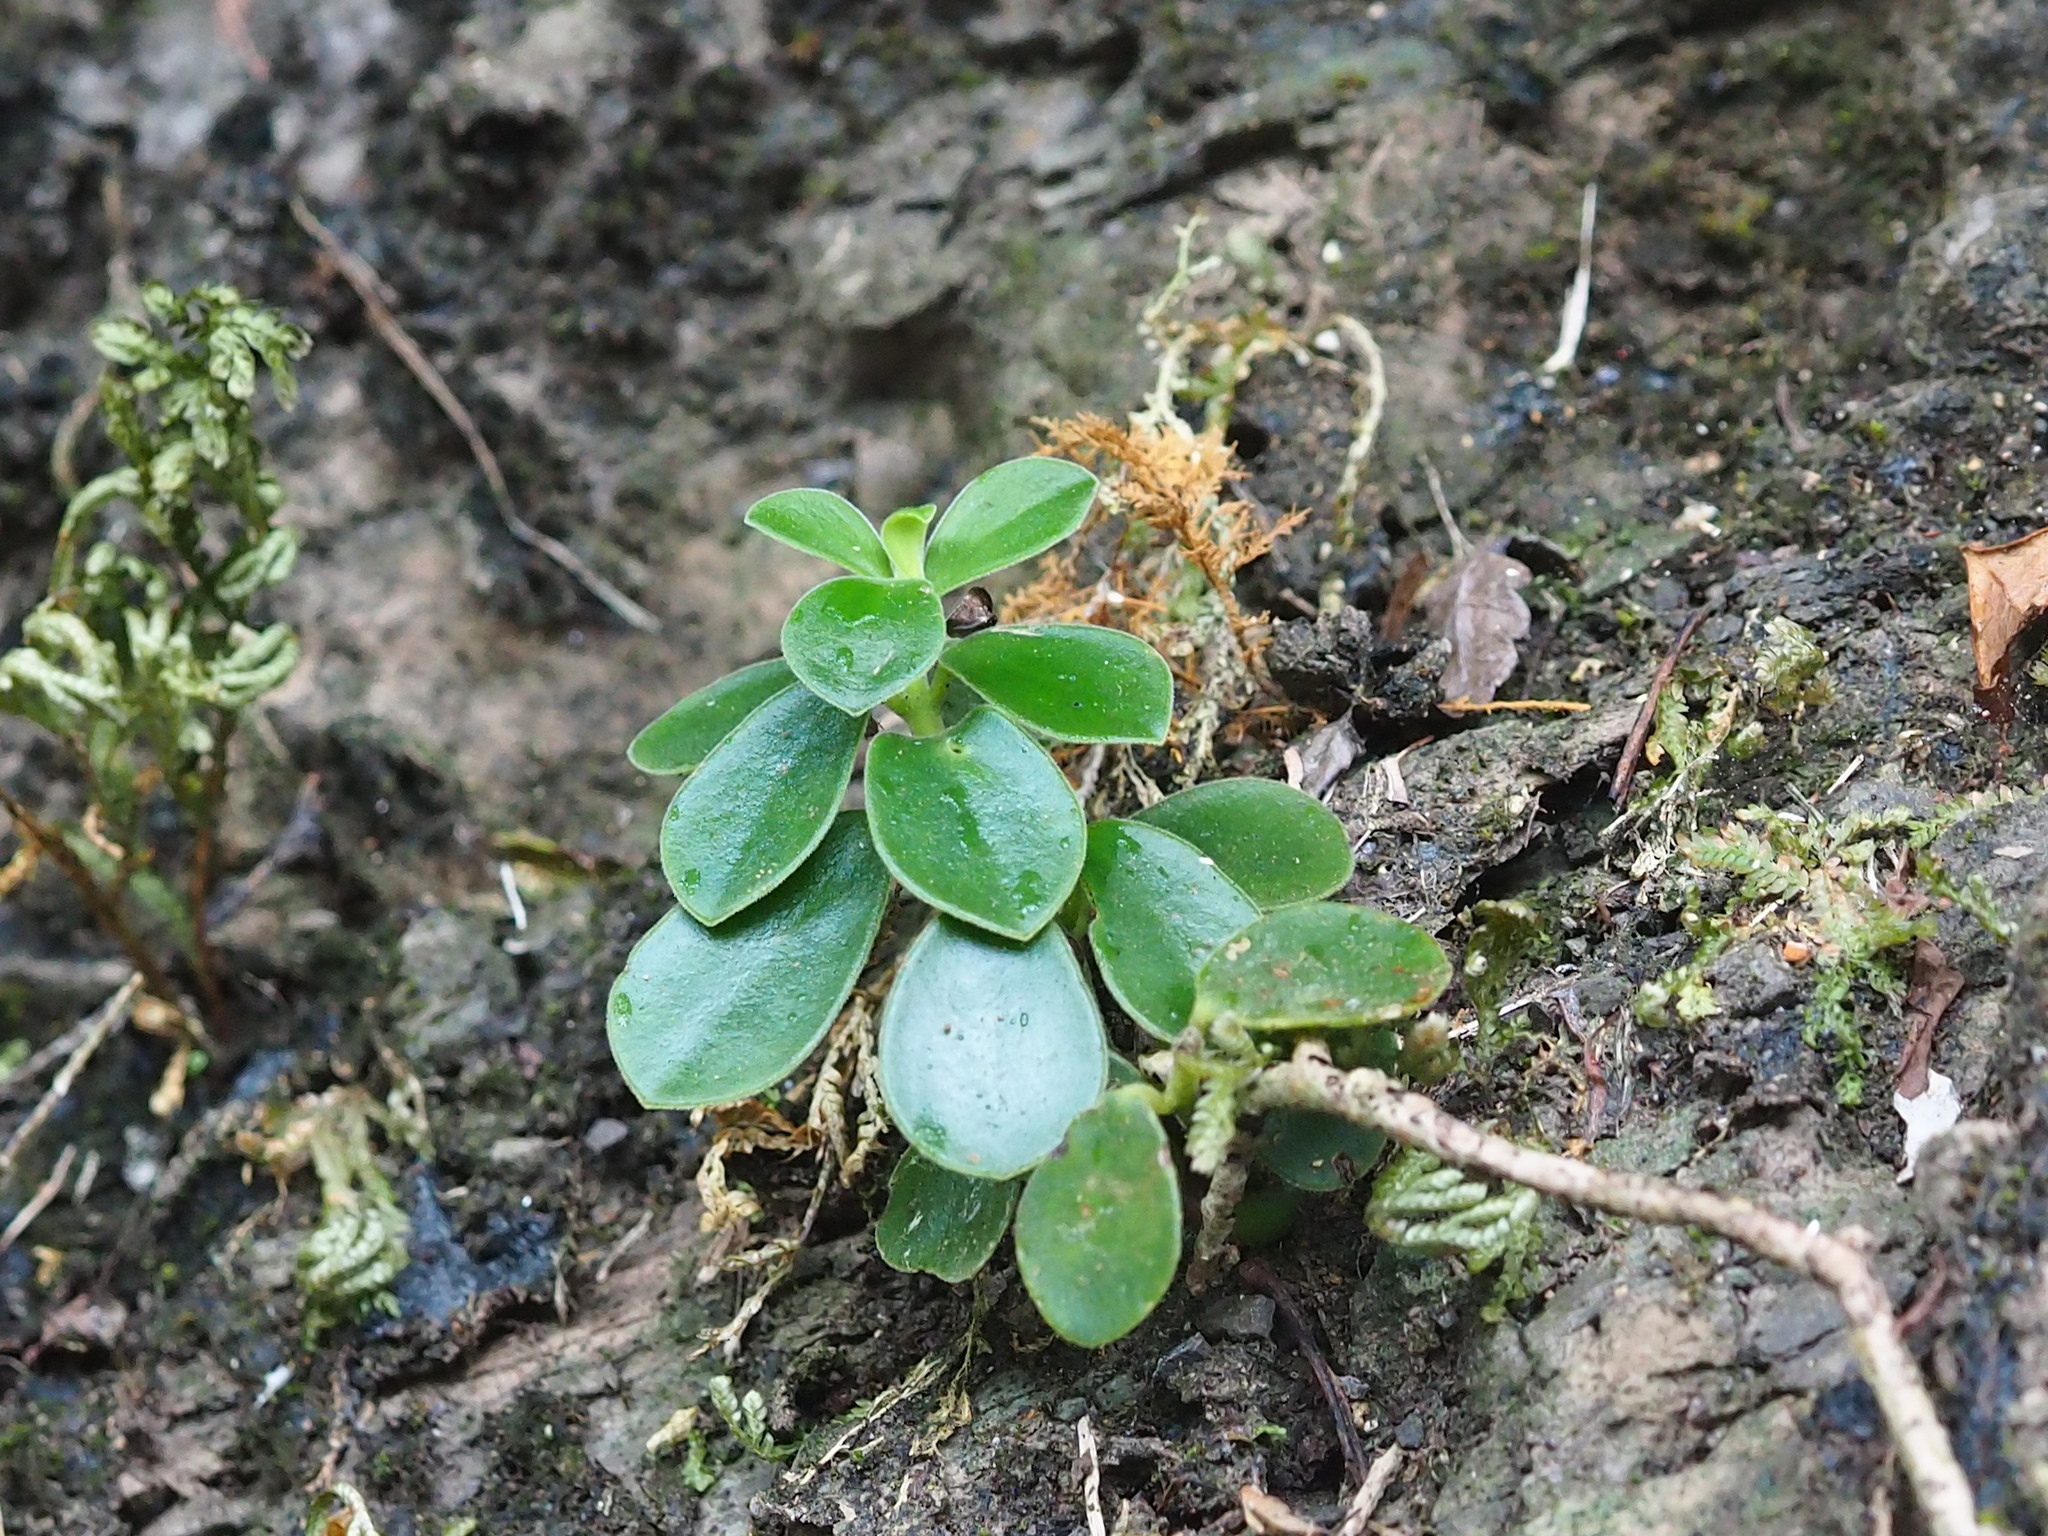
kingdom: Plantae
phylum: Tracheophyta
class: Magnoliopsida
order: Piperales
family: Piperaceae
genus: Peperomia
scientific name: Peperomia japonica
